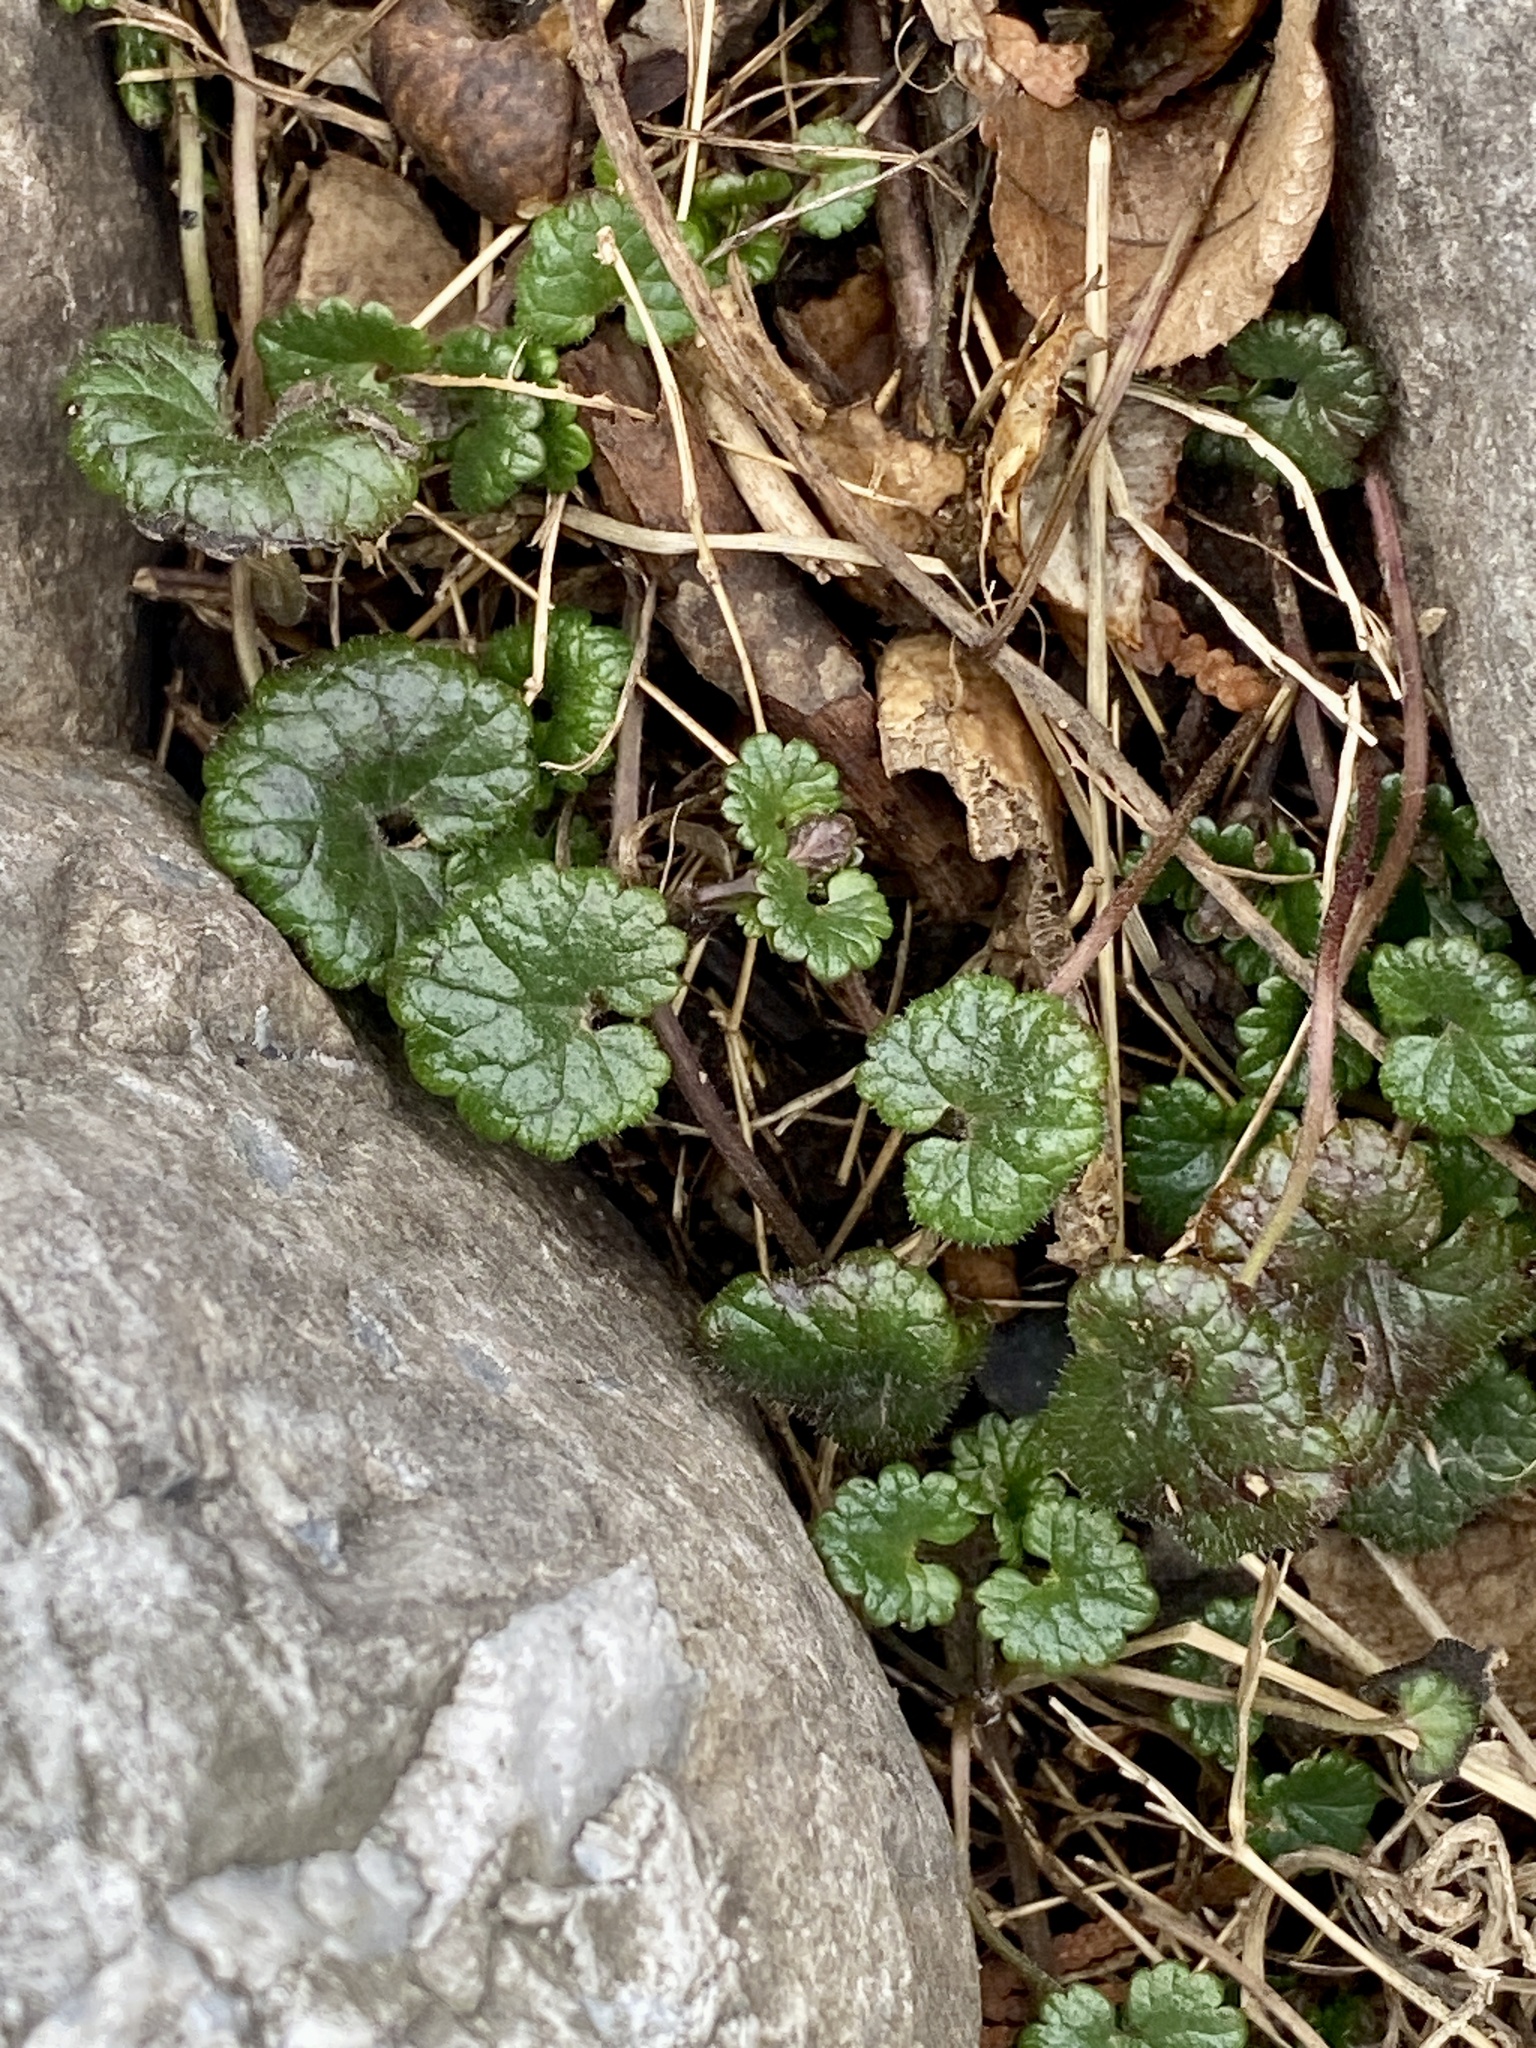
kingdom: Plantae
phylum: Tracheophyta
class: Magnoliopsida
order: Lamiales
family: Lamiaceae
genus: Glechoma
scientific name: Glechoma hederacea
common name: Ground ivy
